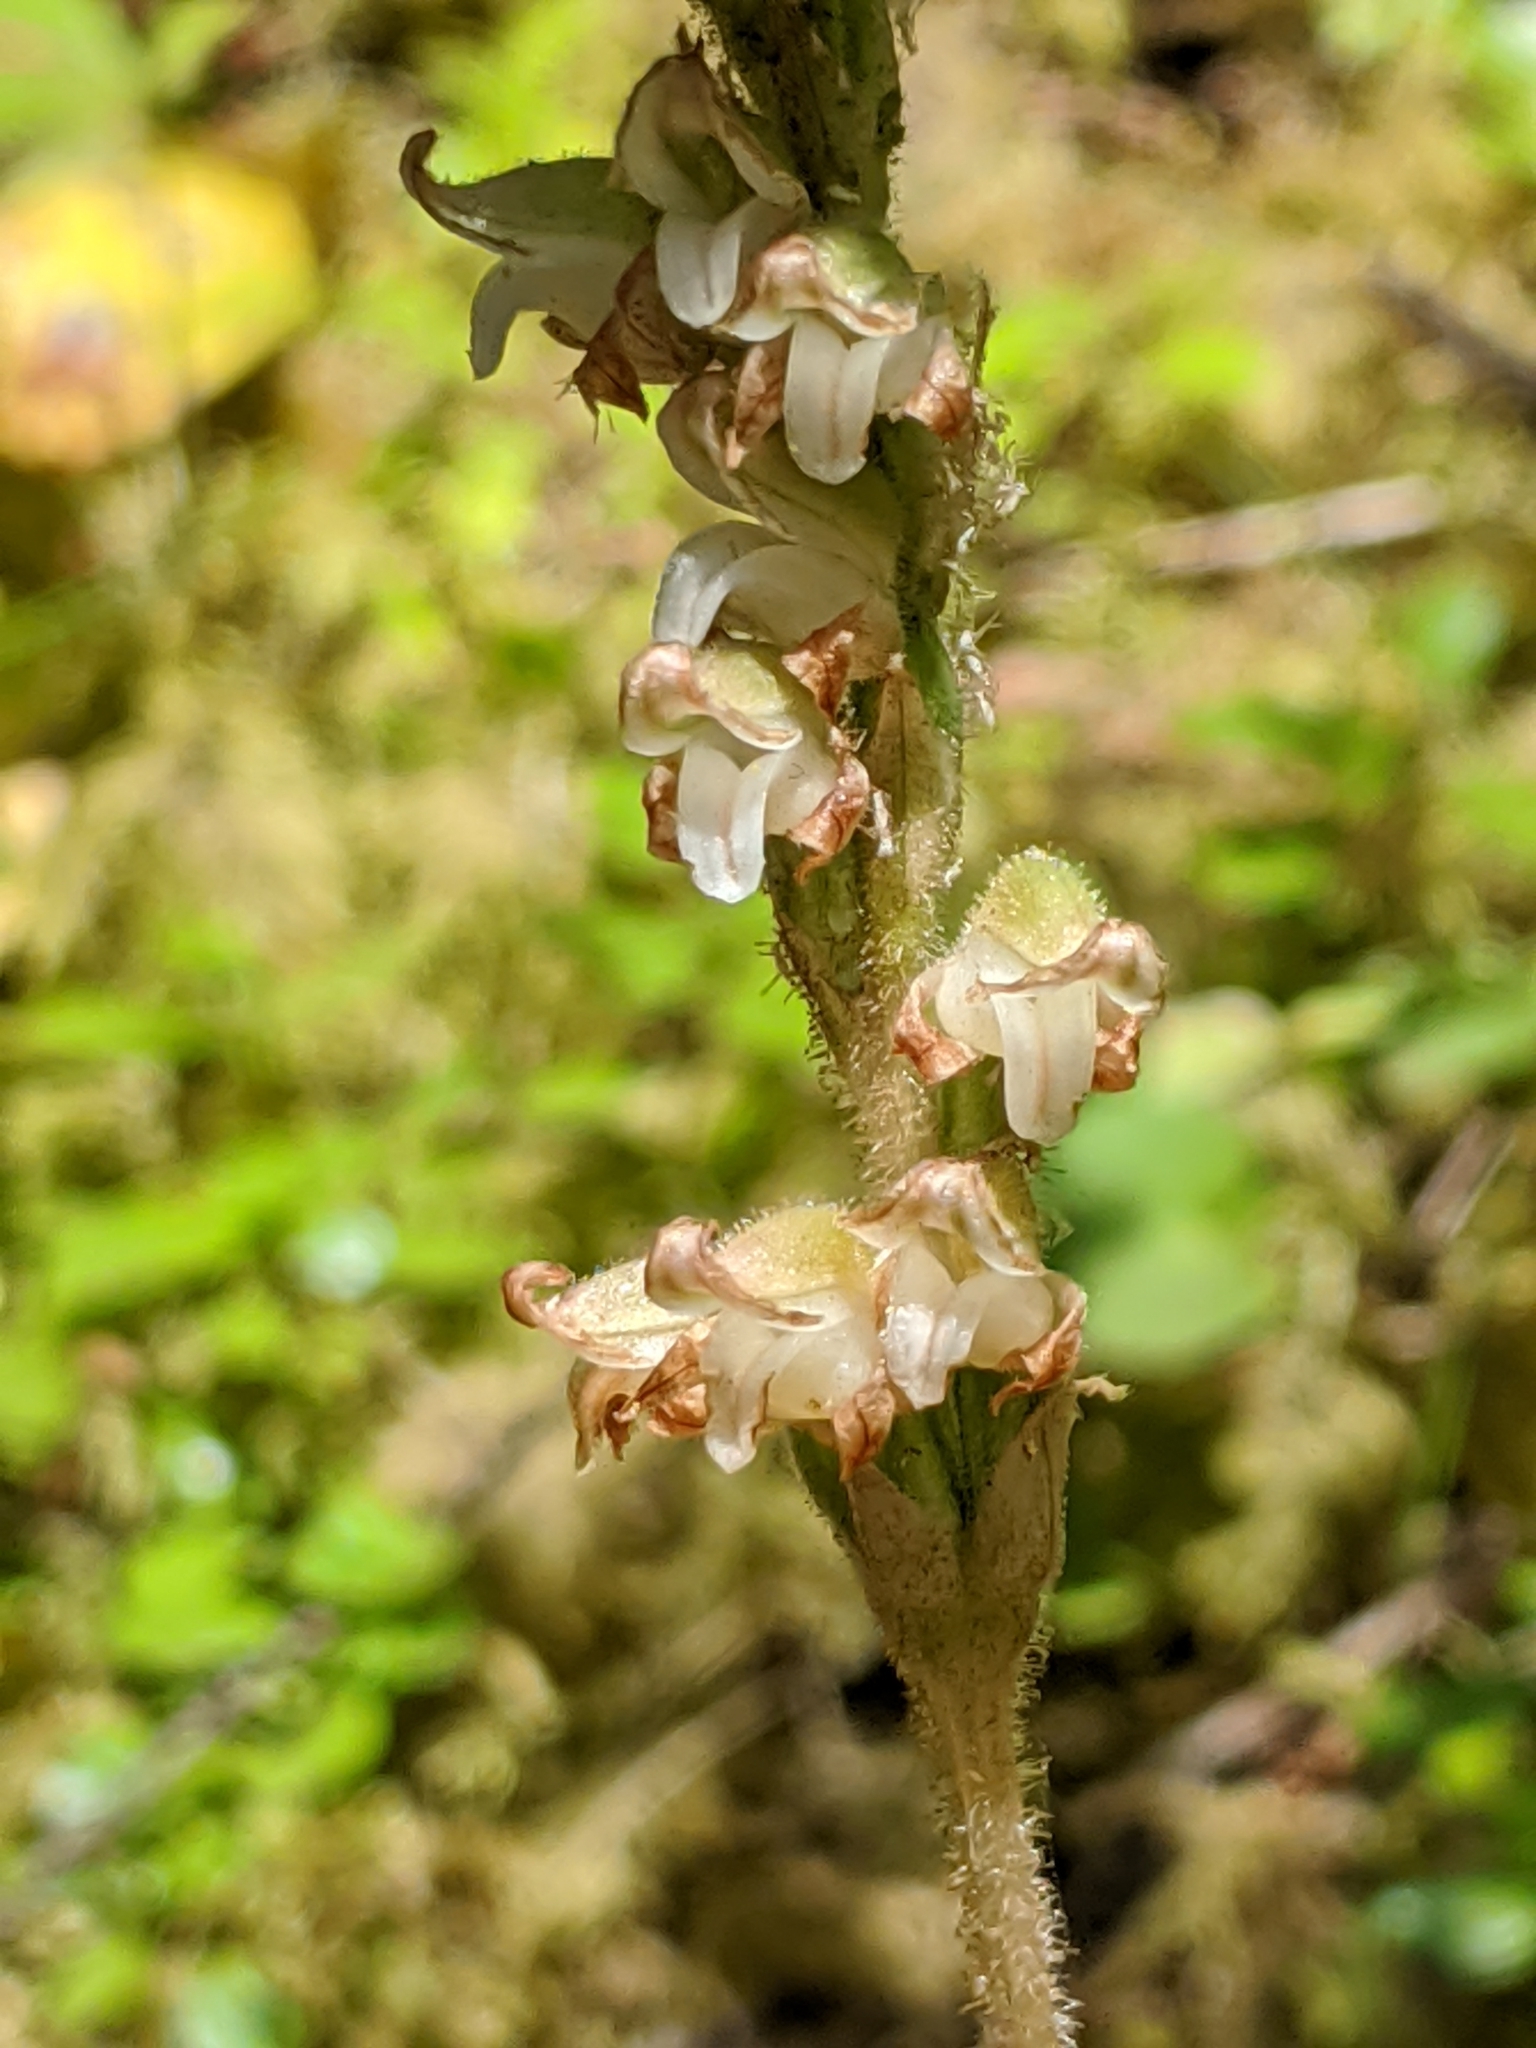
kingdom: Plantae
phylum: Tracheophyta
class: Liliopsida
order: Asparagales
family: Orchidaceae
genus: Goodyera
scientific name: Goodyera oblongifolia
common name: Giant rattlesnake-plantain
